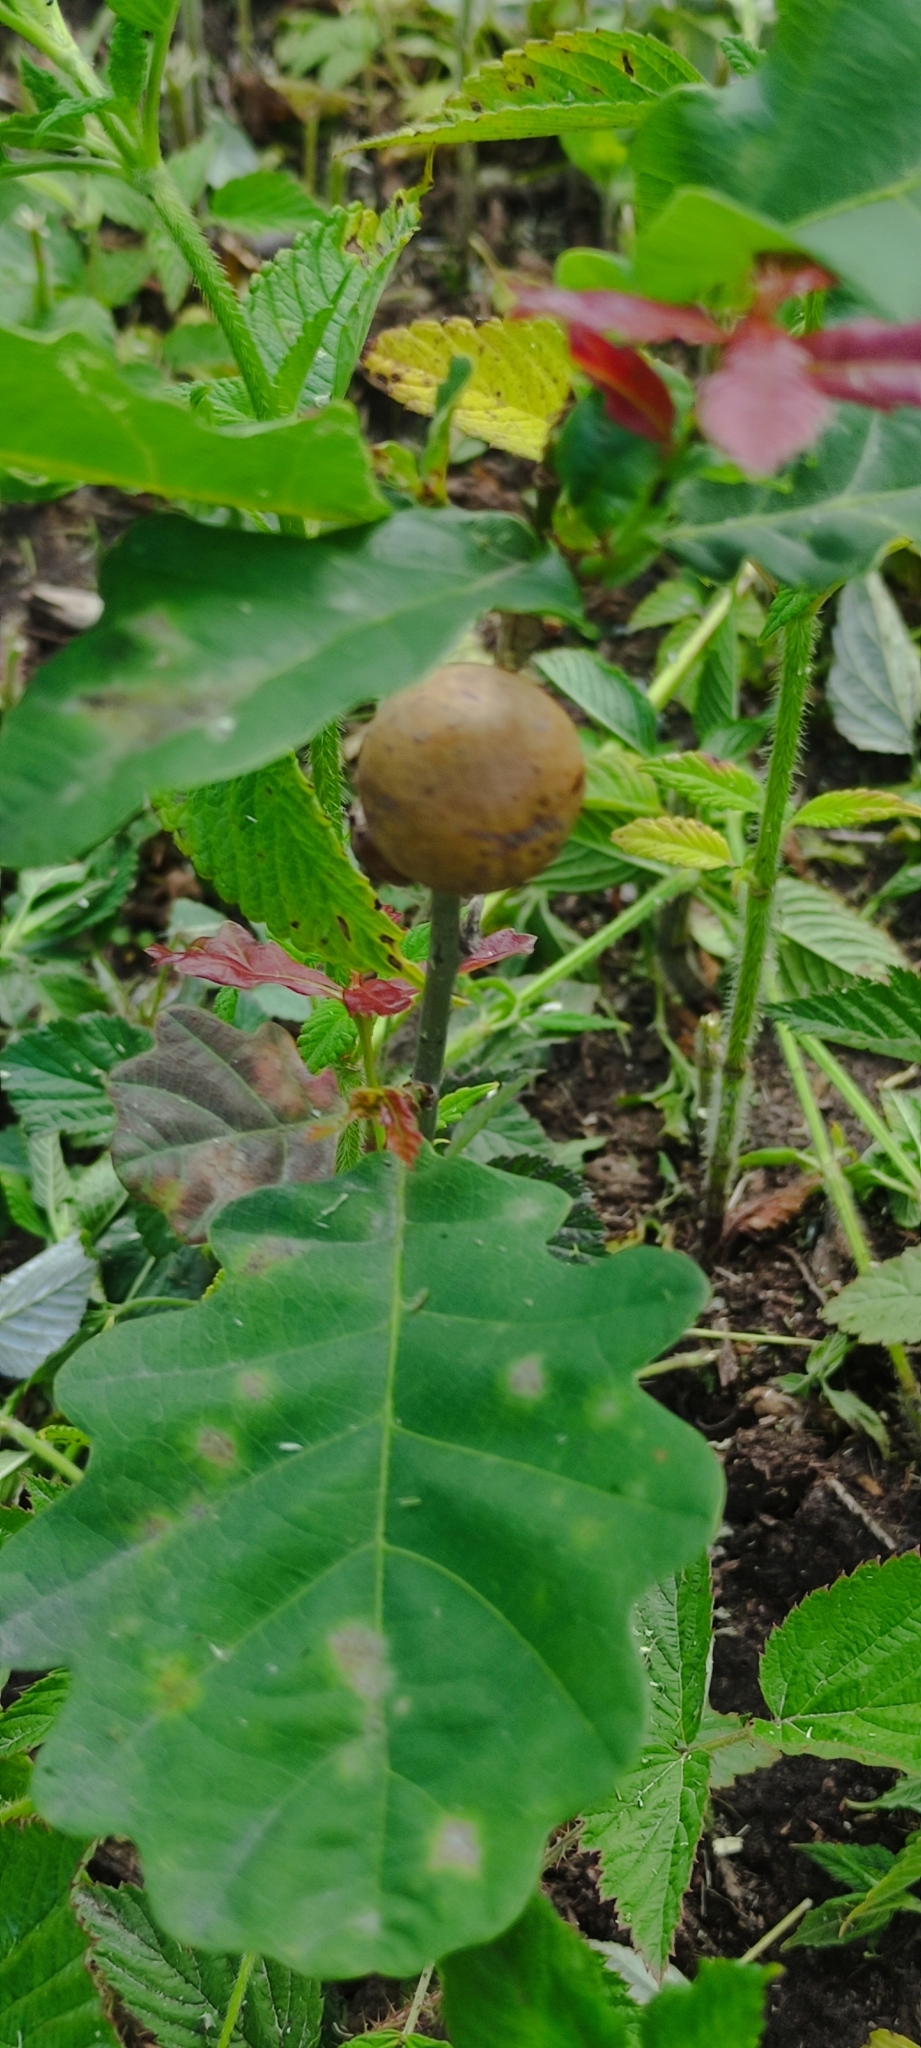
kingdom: Animalia
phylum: Arthropoda
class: Insecta
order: Hymenoptera
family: Cynipidae
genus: Andricus
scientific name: Andricus kollari
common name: Marble gall
